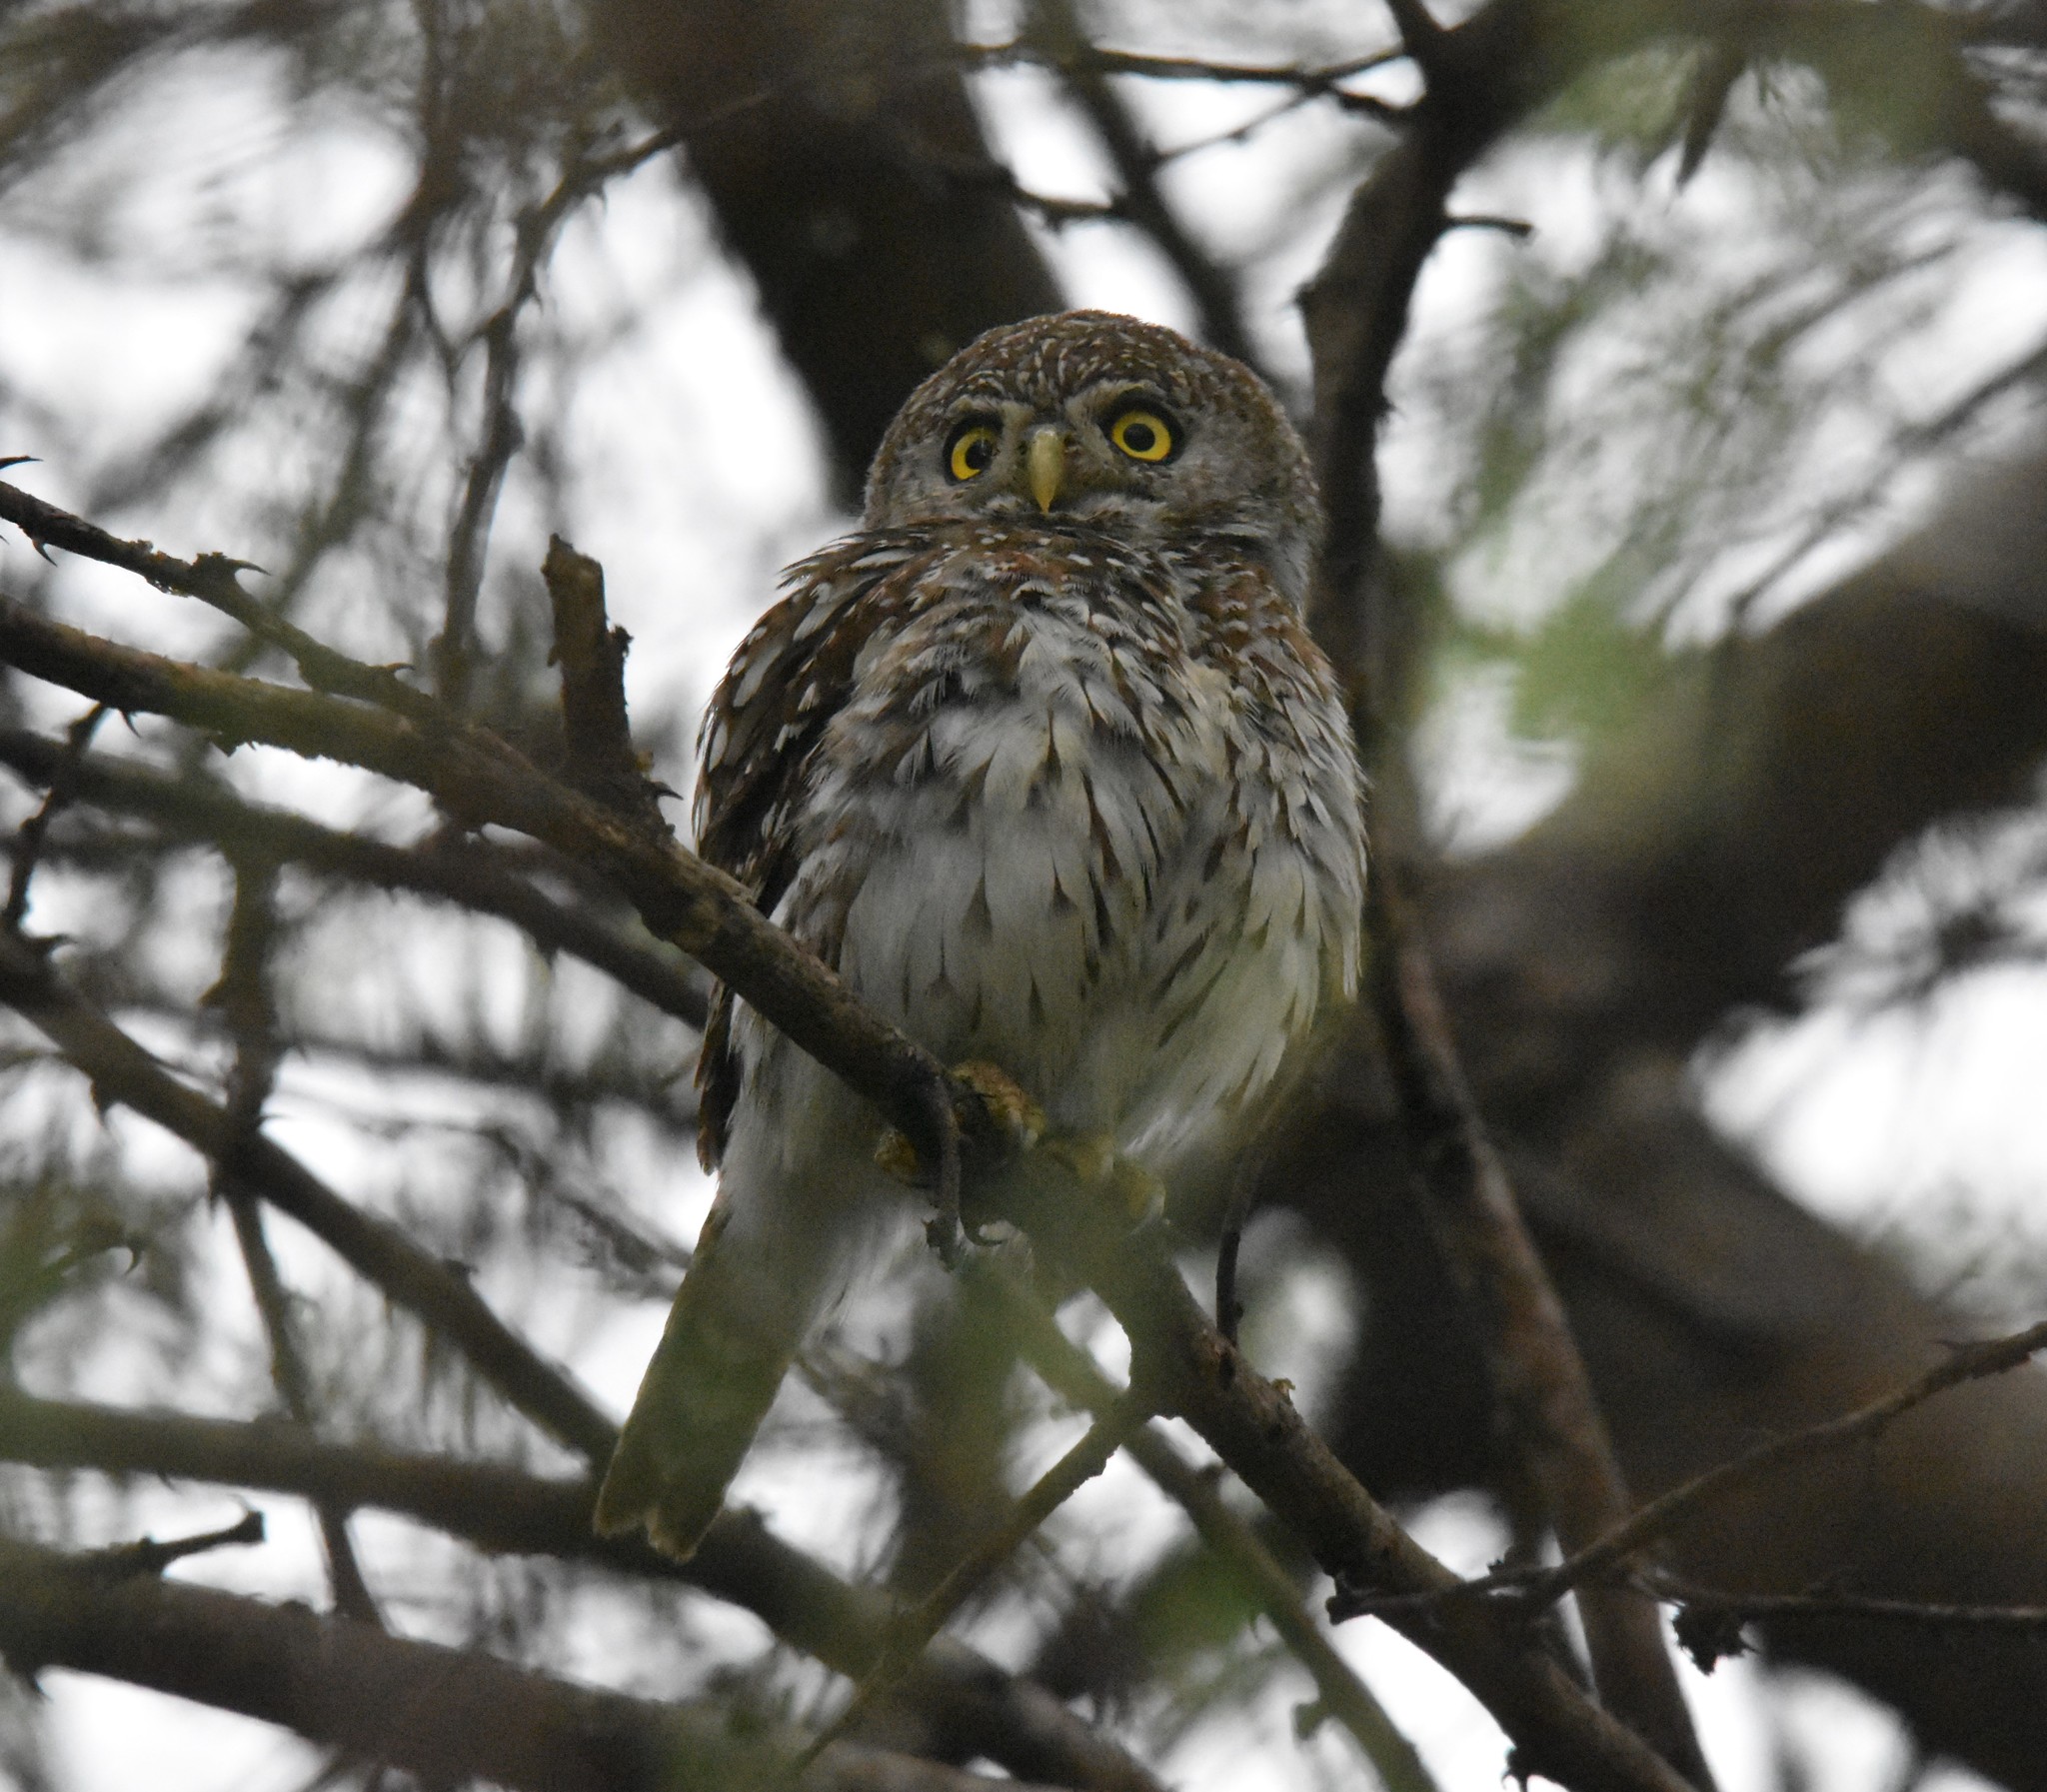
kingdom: Animalia
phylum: Chordata
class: Aves
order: Strigiformes
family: Strigidae
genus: Glaucidium
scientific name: Glaucidium perlatum
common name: Pearl-spotted owlet
